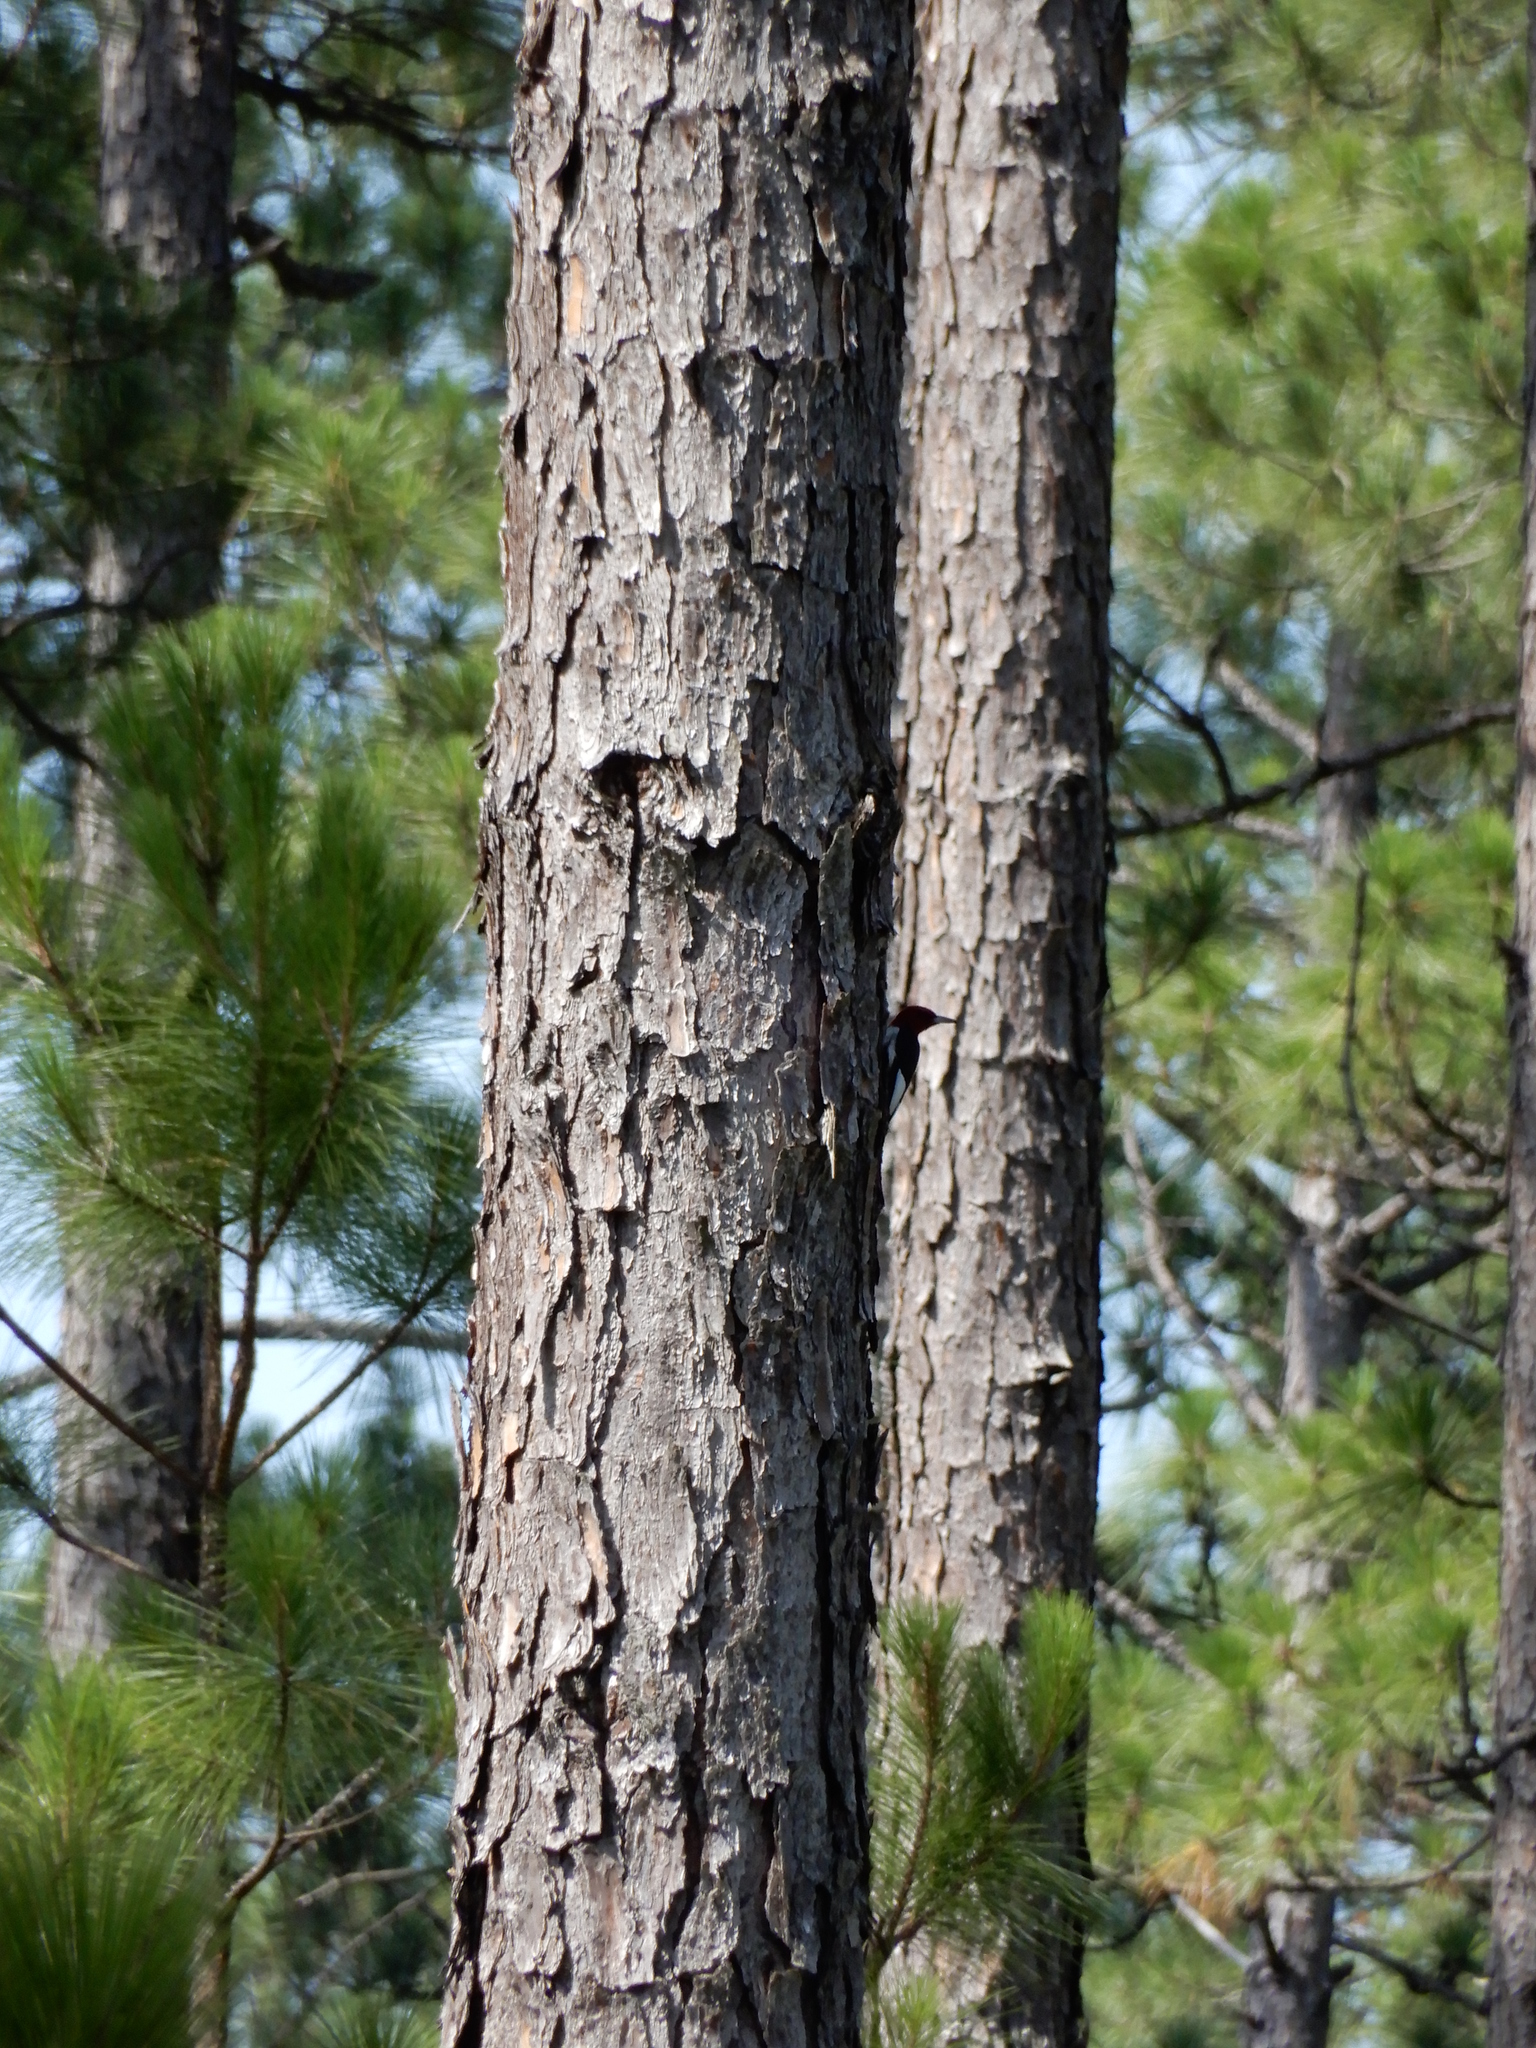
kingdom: Animalia
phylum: Chordata
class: Aves
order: Piciformes
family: Picidae
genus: Melanerpes
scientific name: Melanerpes erythrocephalus
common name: Red-headed woodpecker
